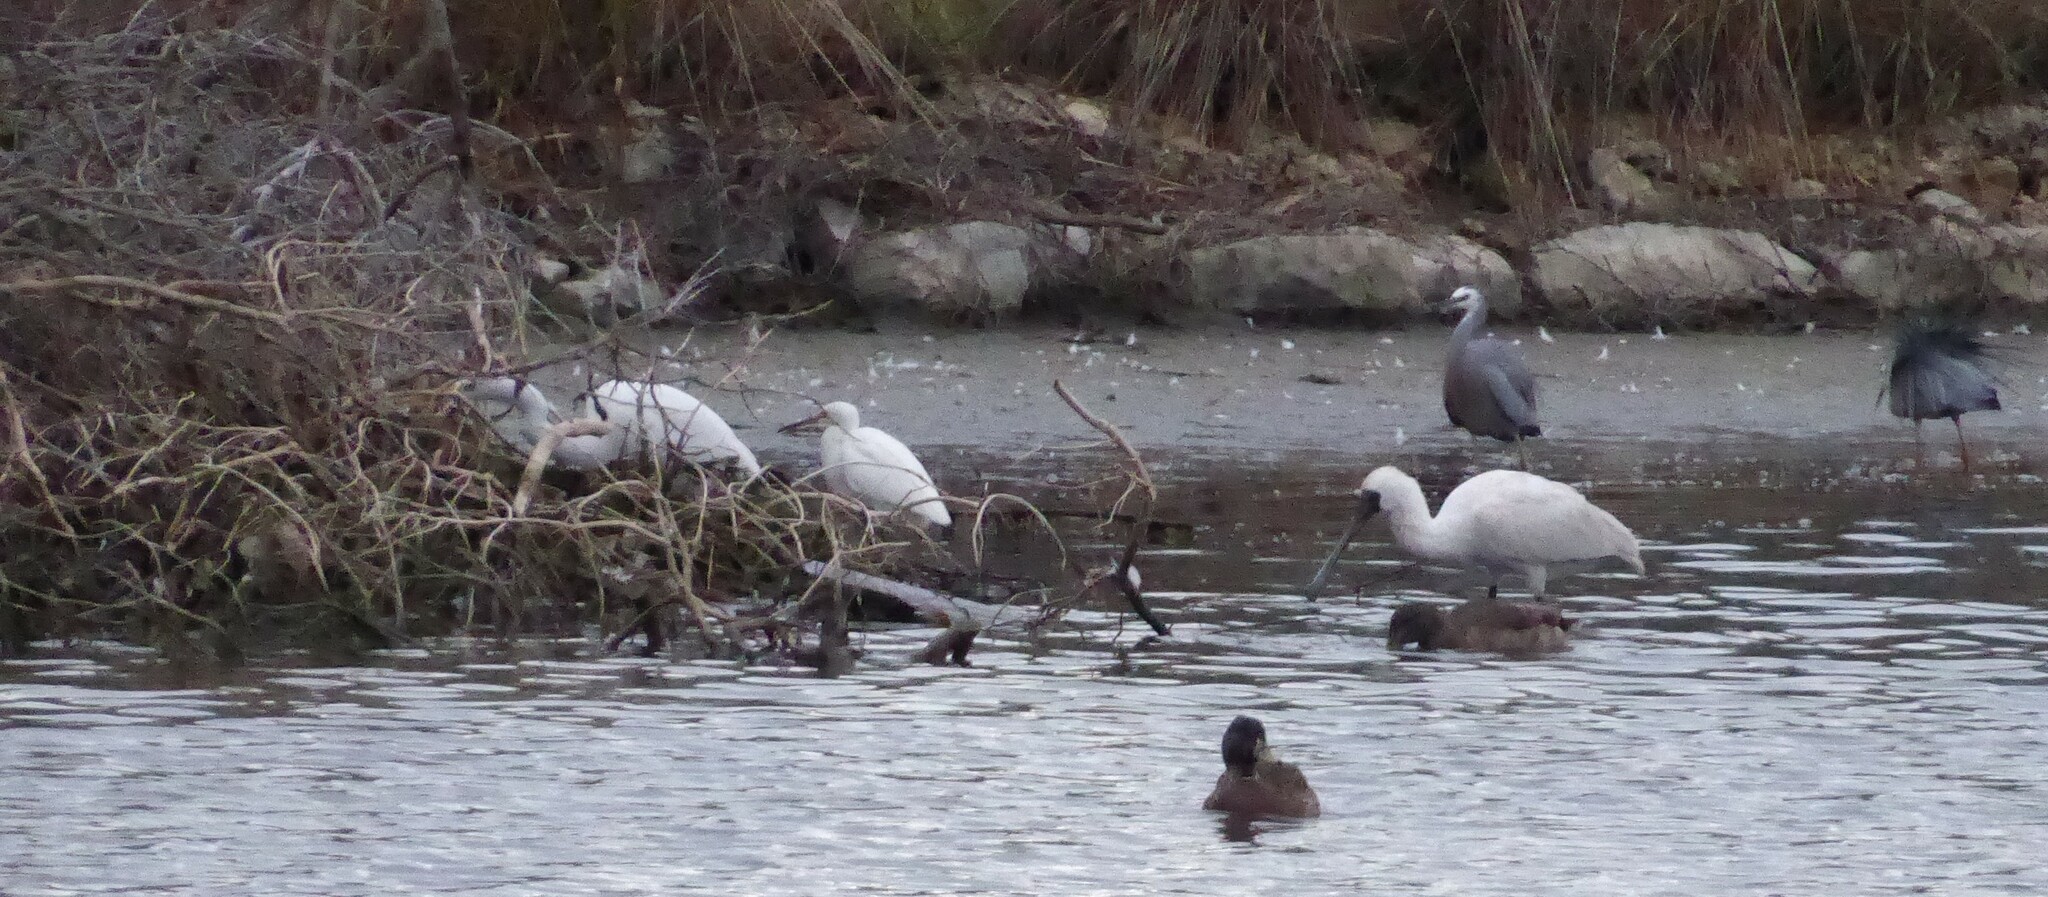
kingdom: Animalia
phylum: Chordata
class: Aves
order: Pelecaniformes
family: Threskiornithidae
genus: Platalea
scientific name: Platalea regia
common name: Royal spoonbill
